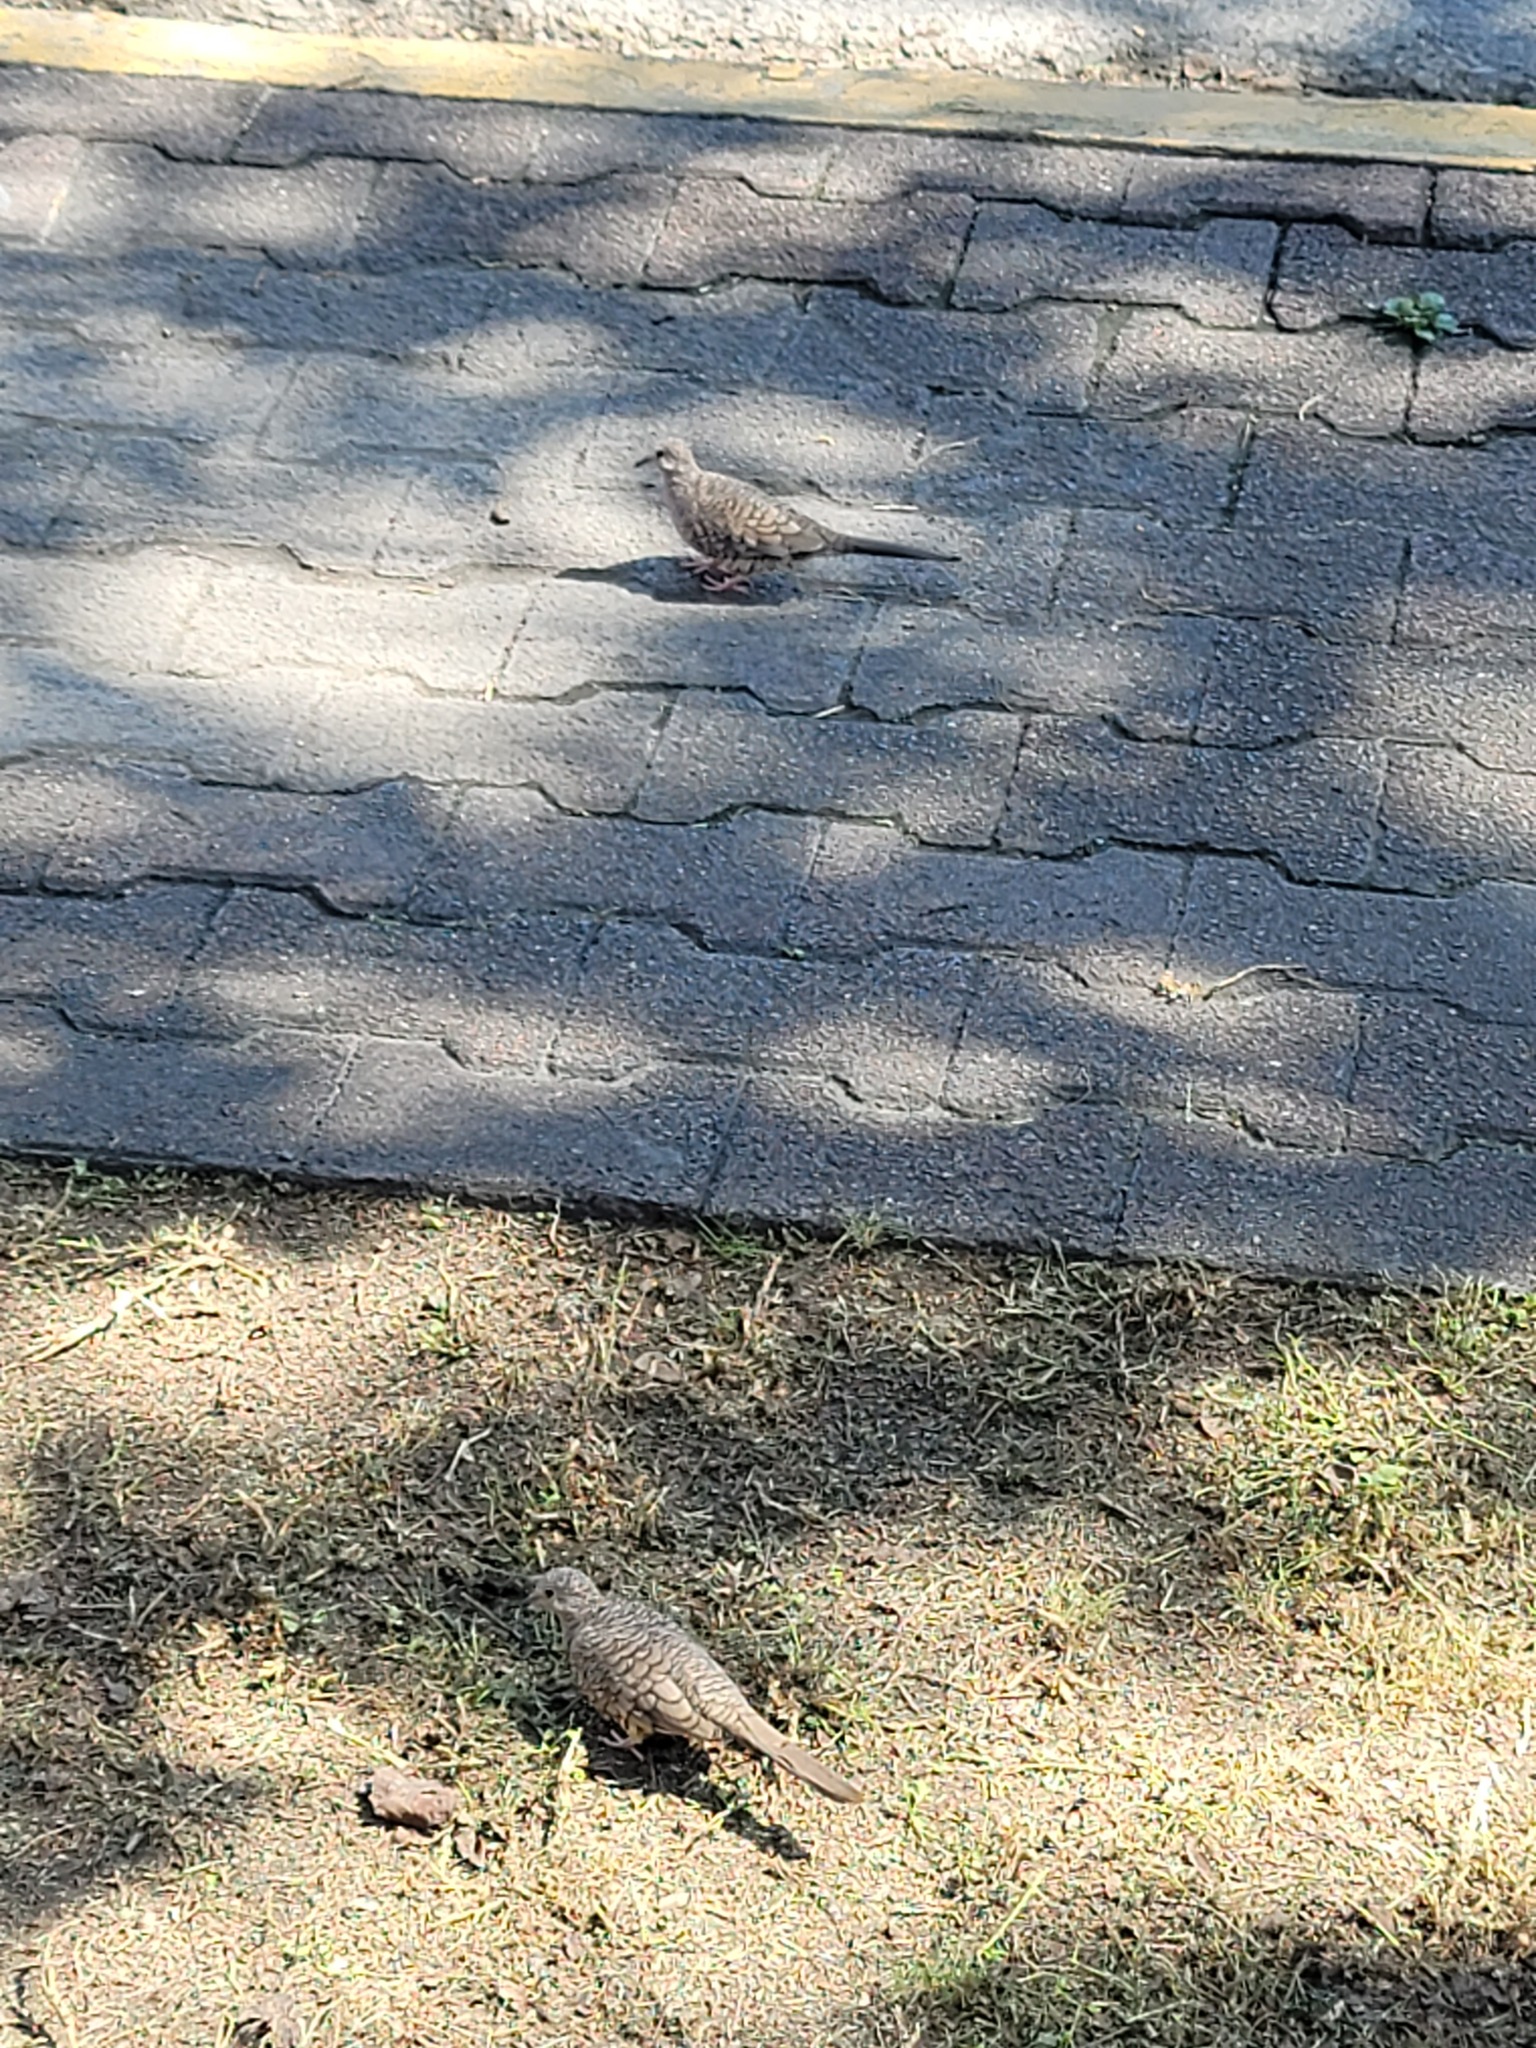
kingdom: Animalia
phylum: Chordata
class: Aves
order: Columbiformes
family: Columbidae
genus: Columbina
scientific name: Columbina inca
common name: Inca dove
